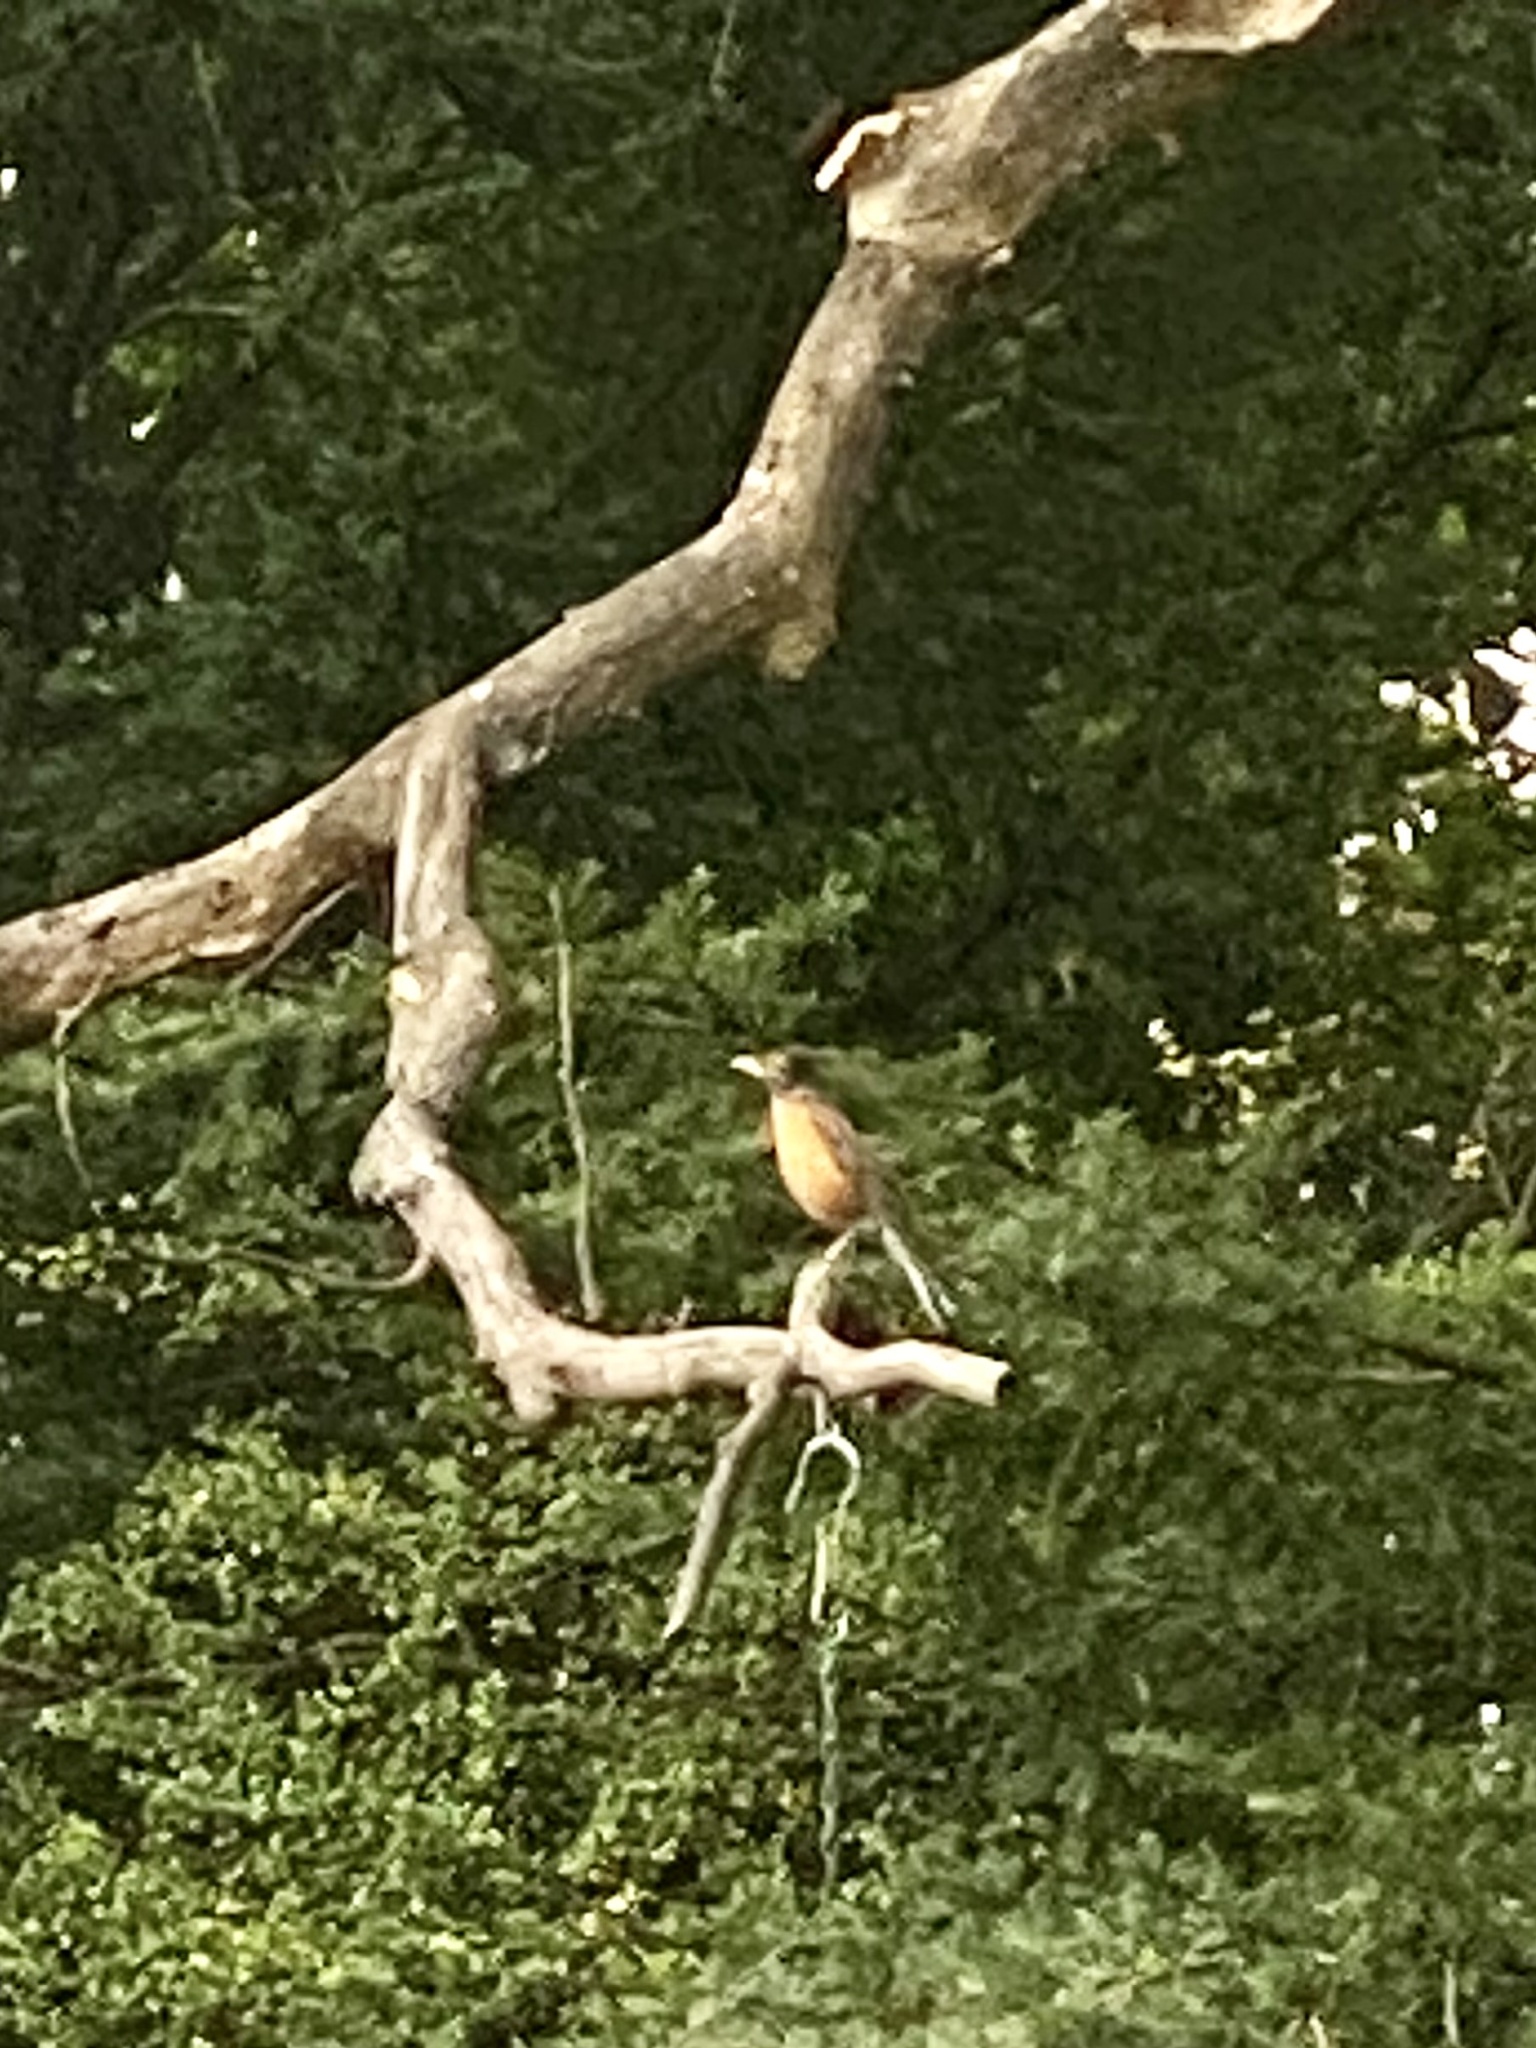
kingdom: Animalia
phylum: Chordata
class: Aves
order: Passeriformes
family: Turdidae
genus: Turdus
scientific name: Turdus migratorius
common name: American robin
